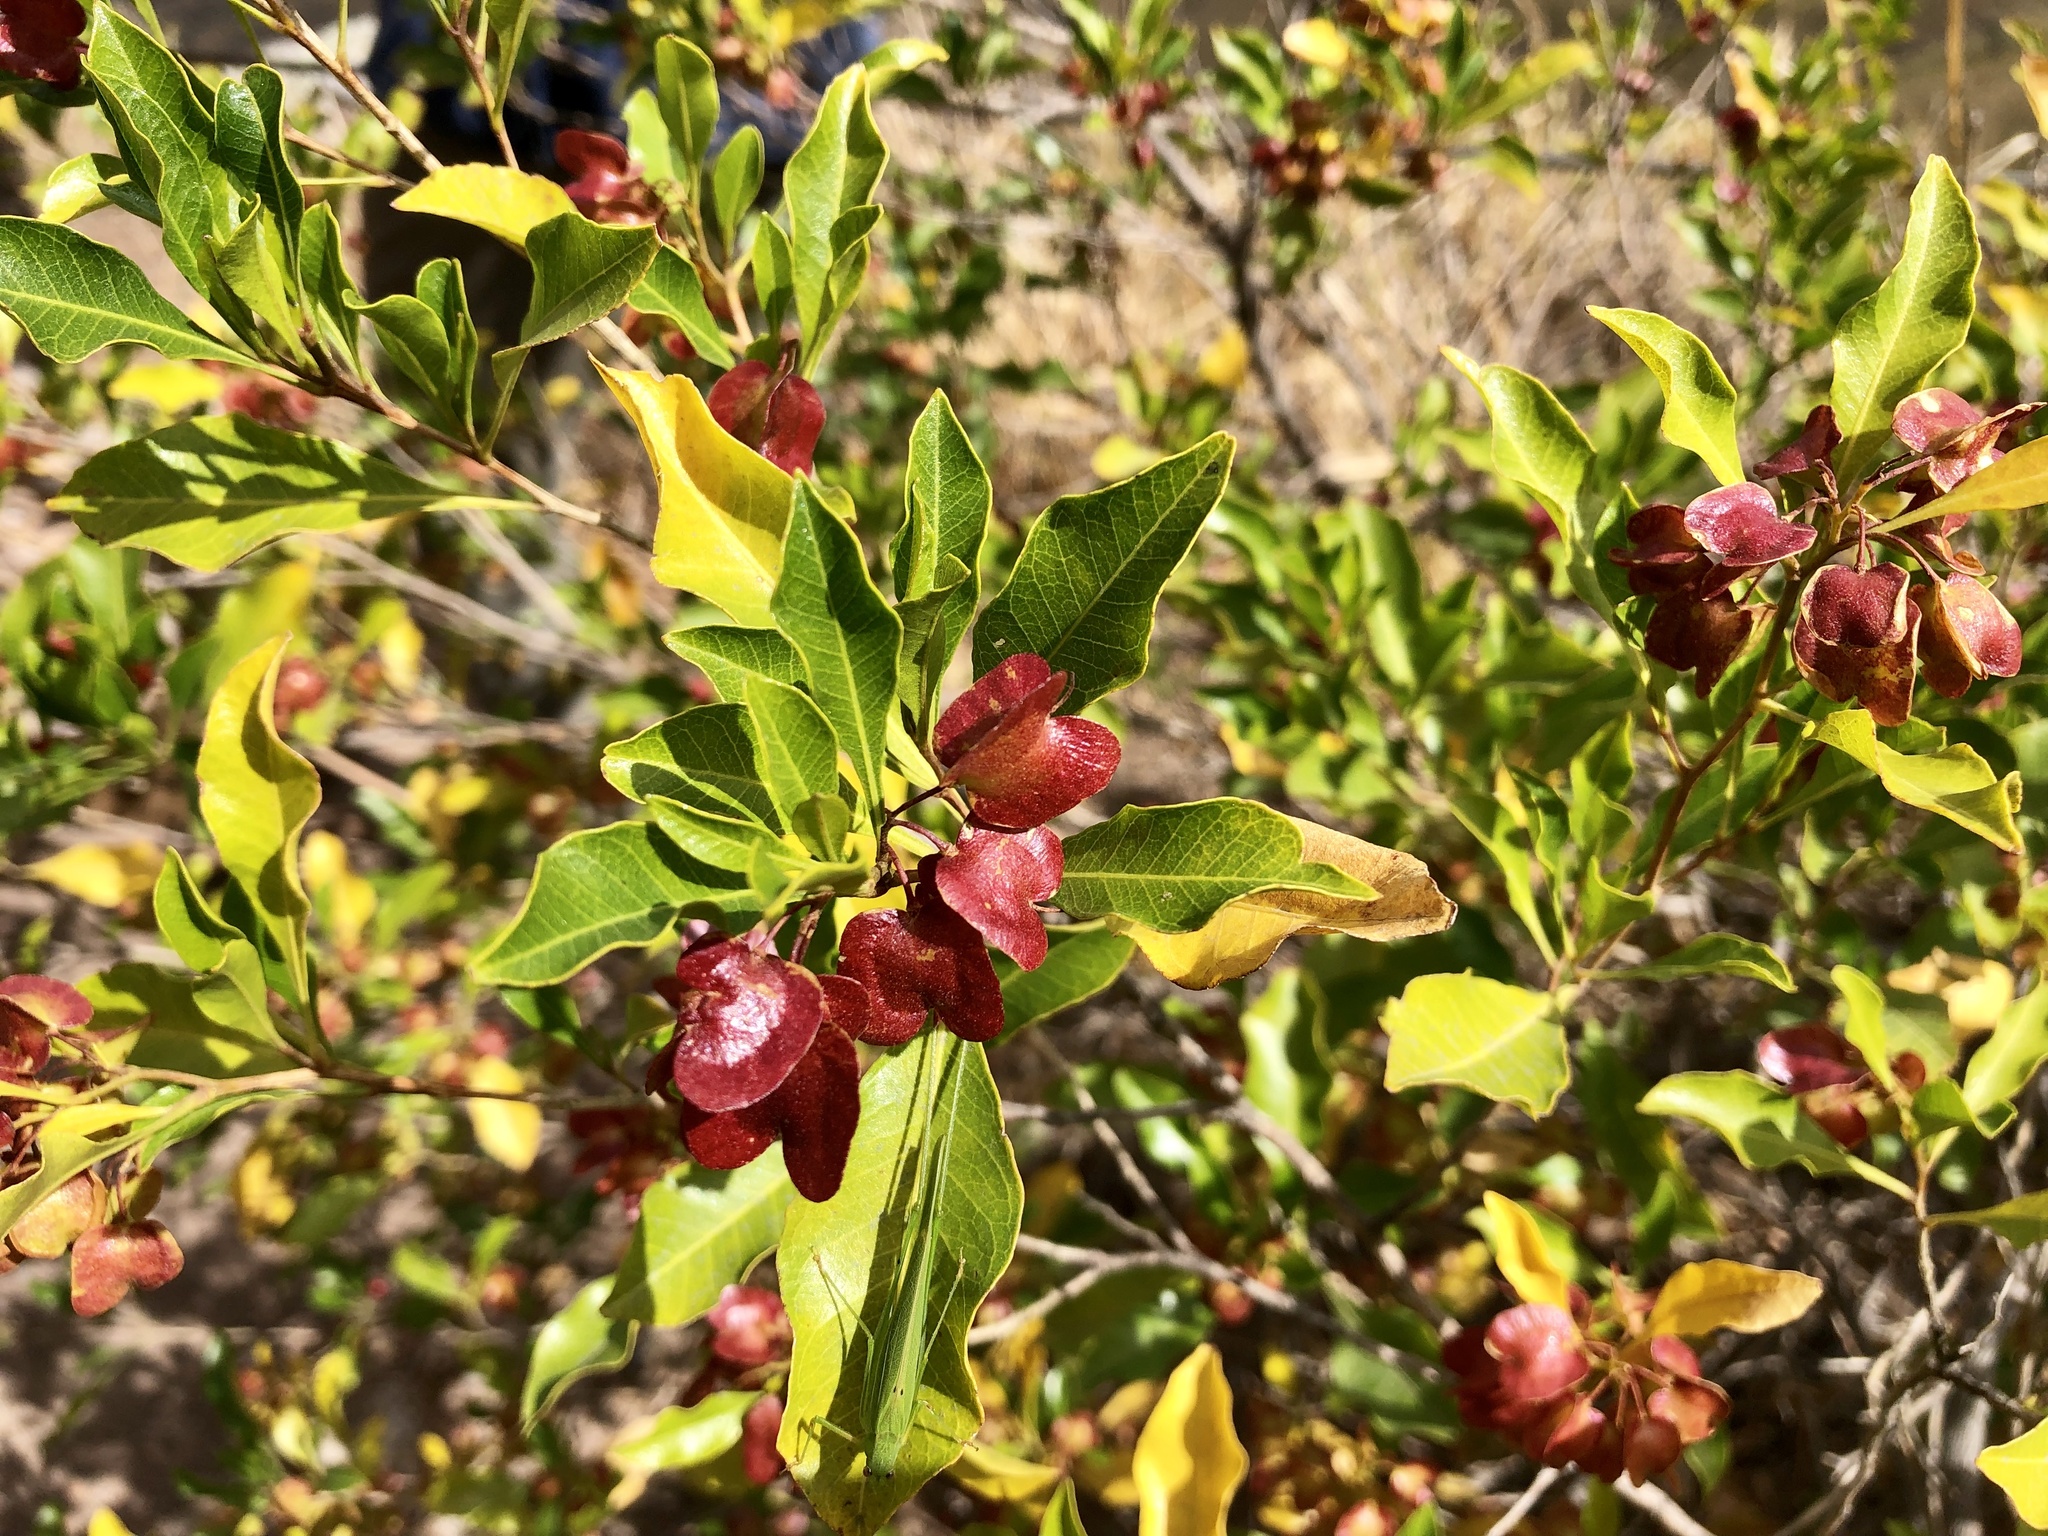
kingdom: Plantae
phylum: Tracheophyta
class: Magnoliopsida
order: Sapindales
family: Sapindaceae
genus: Dodonaea
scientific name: Dodonaea viscosa
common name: Hopbush
